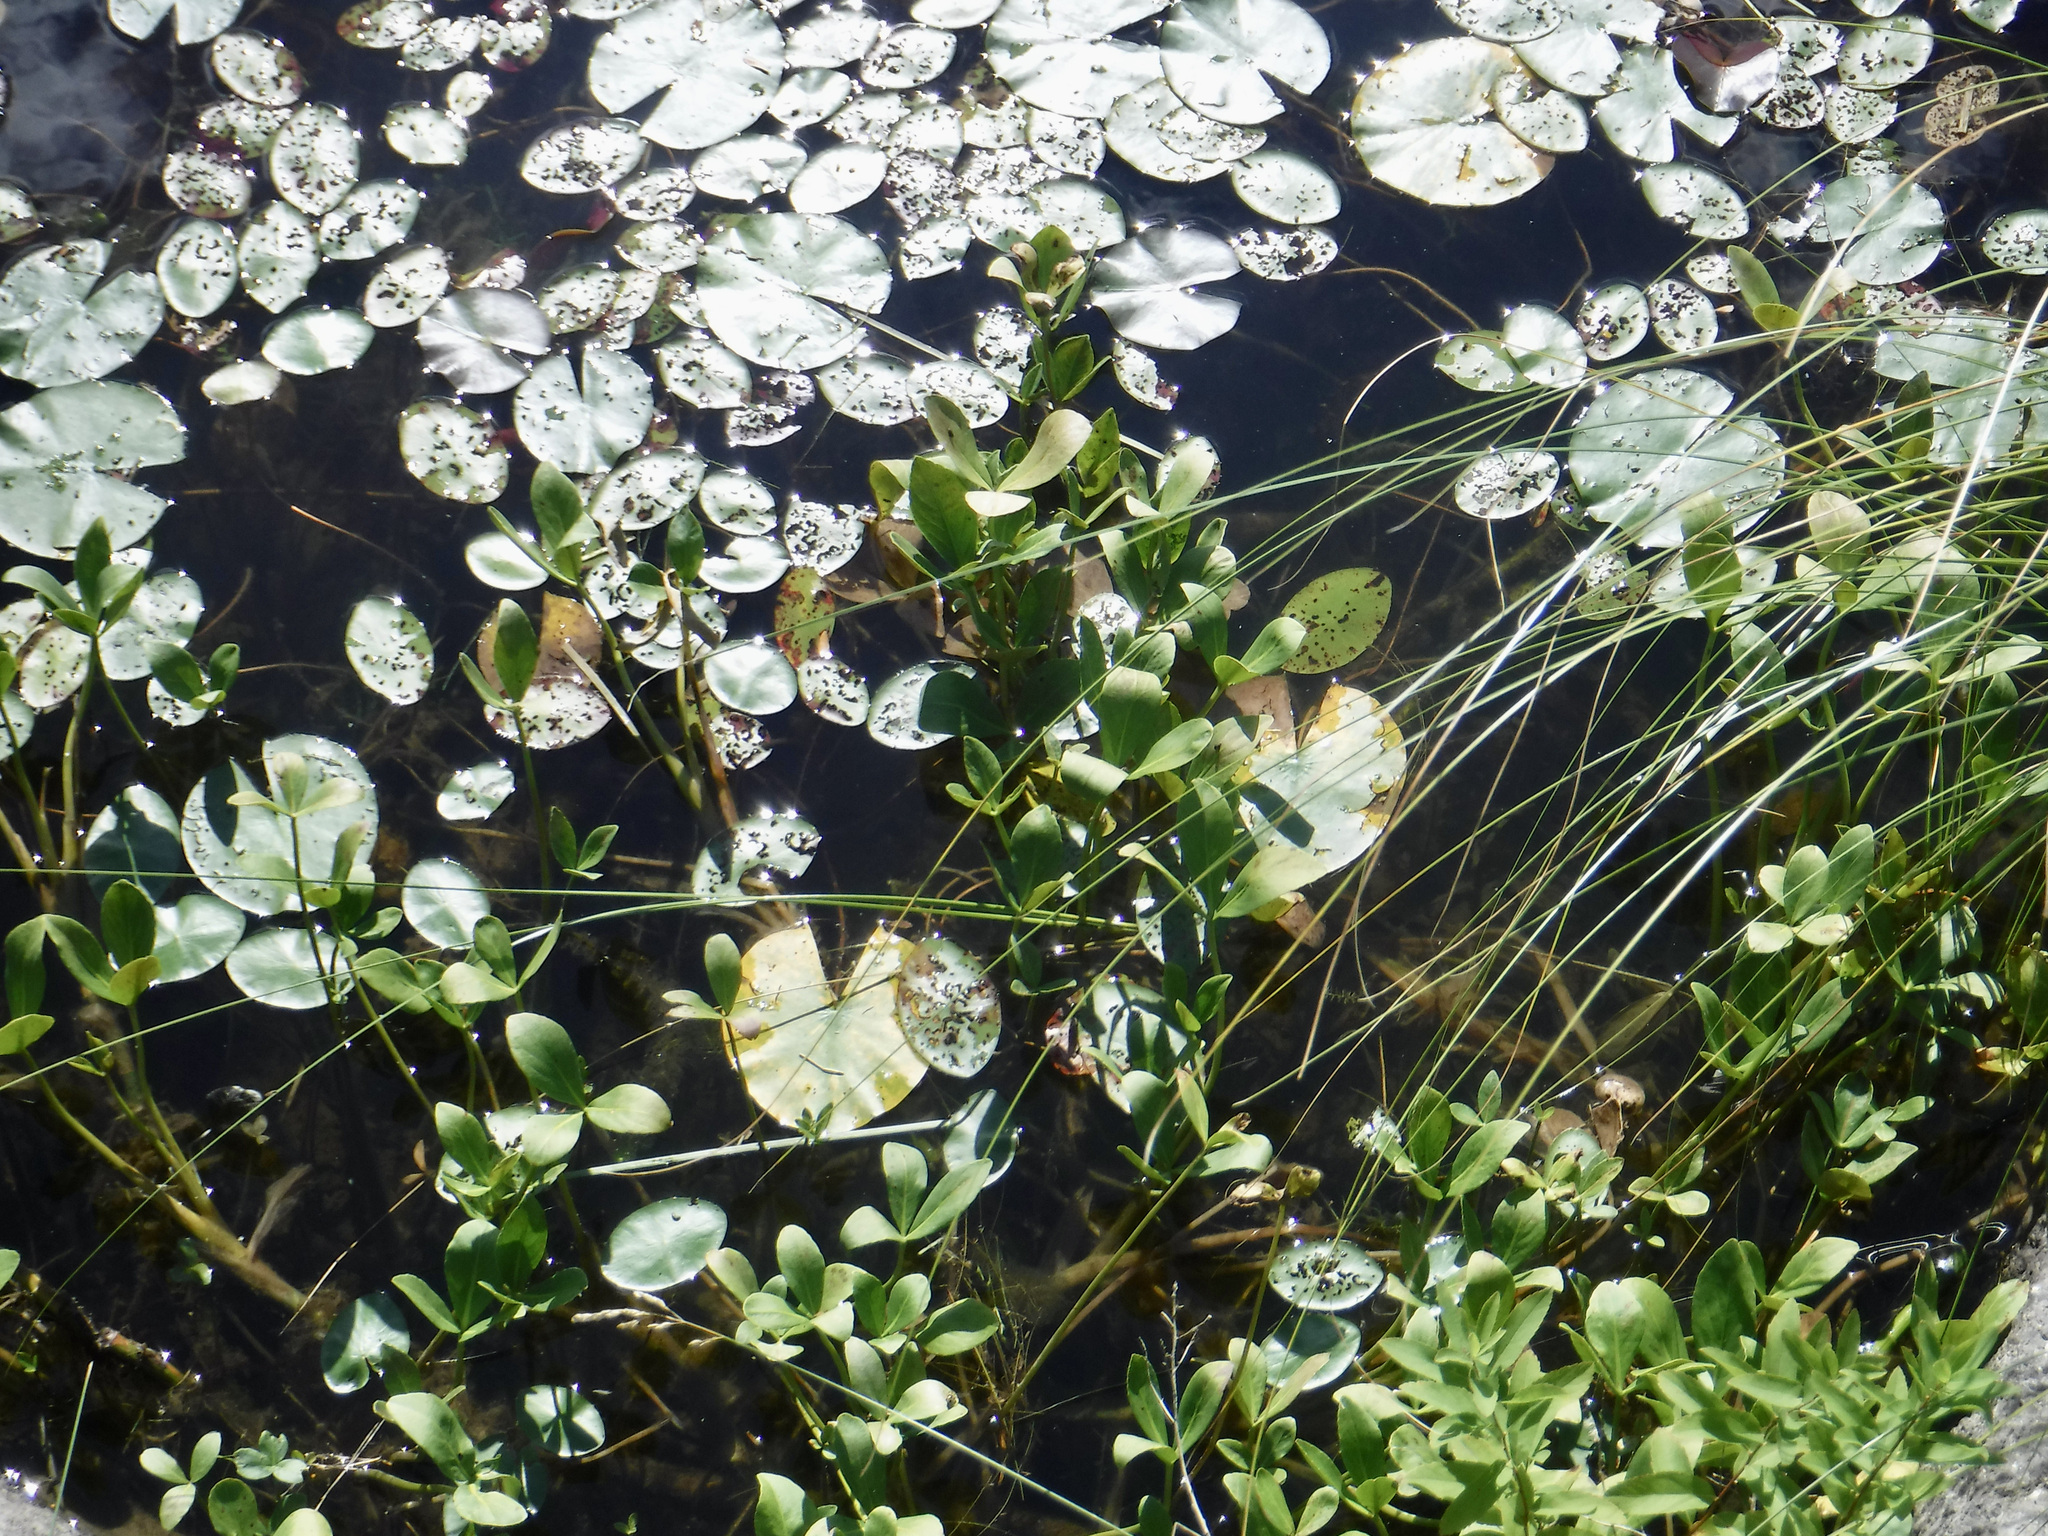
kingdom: Plantae
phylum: Tracheophyta
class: Magnoliopsida
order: Asterales
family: Menyanthaceae
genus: Menyanthes
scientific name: Menyanthes trifoliata
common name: Bogbean
